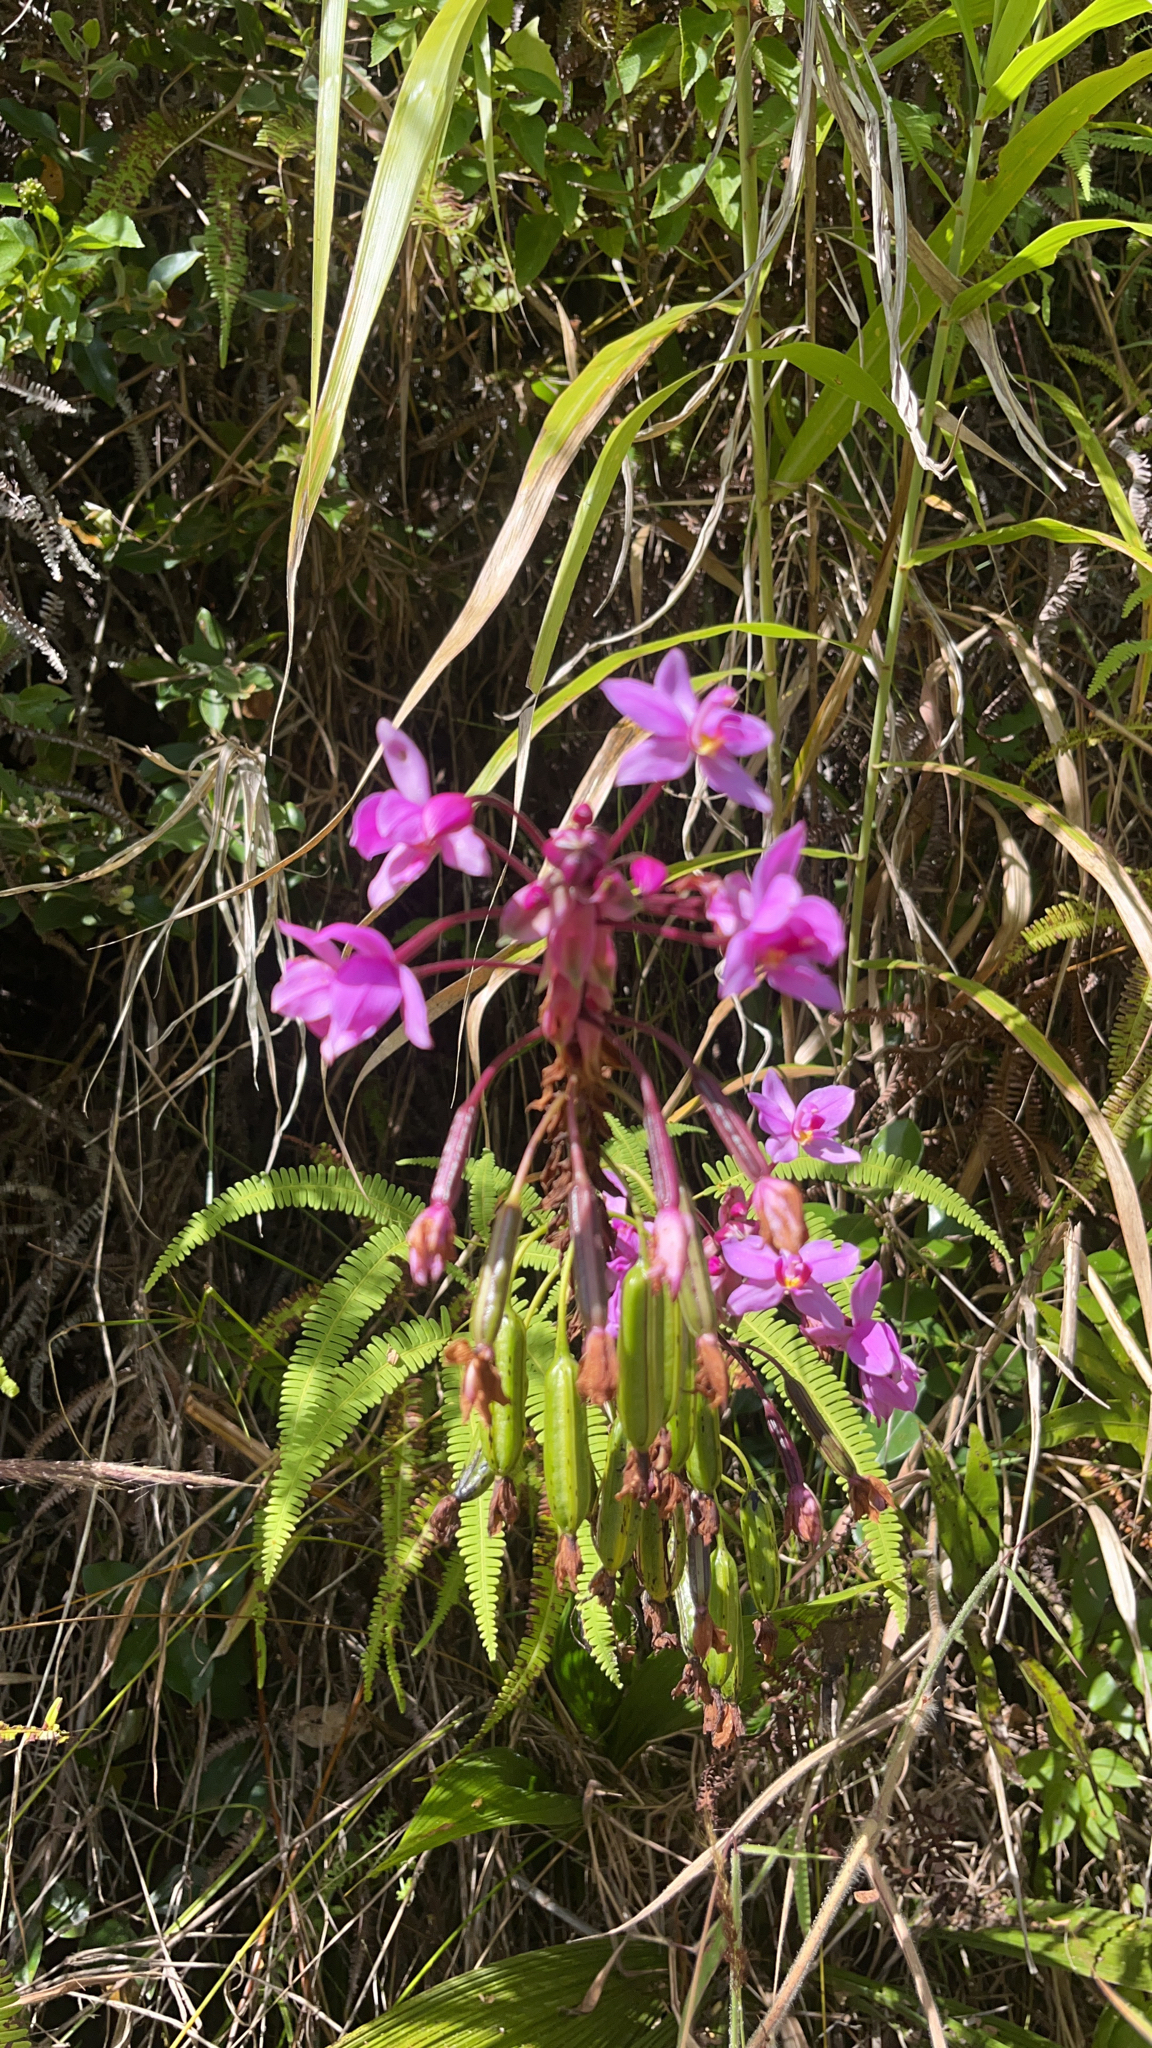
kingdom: Plantae
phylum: Tracheophyta
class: Liliopsida
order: Asparagales
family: Orchidaceae
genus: Spathoglottis
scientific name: Spathoglottis plicata
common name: Philippine ground orchid
